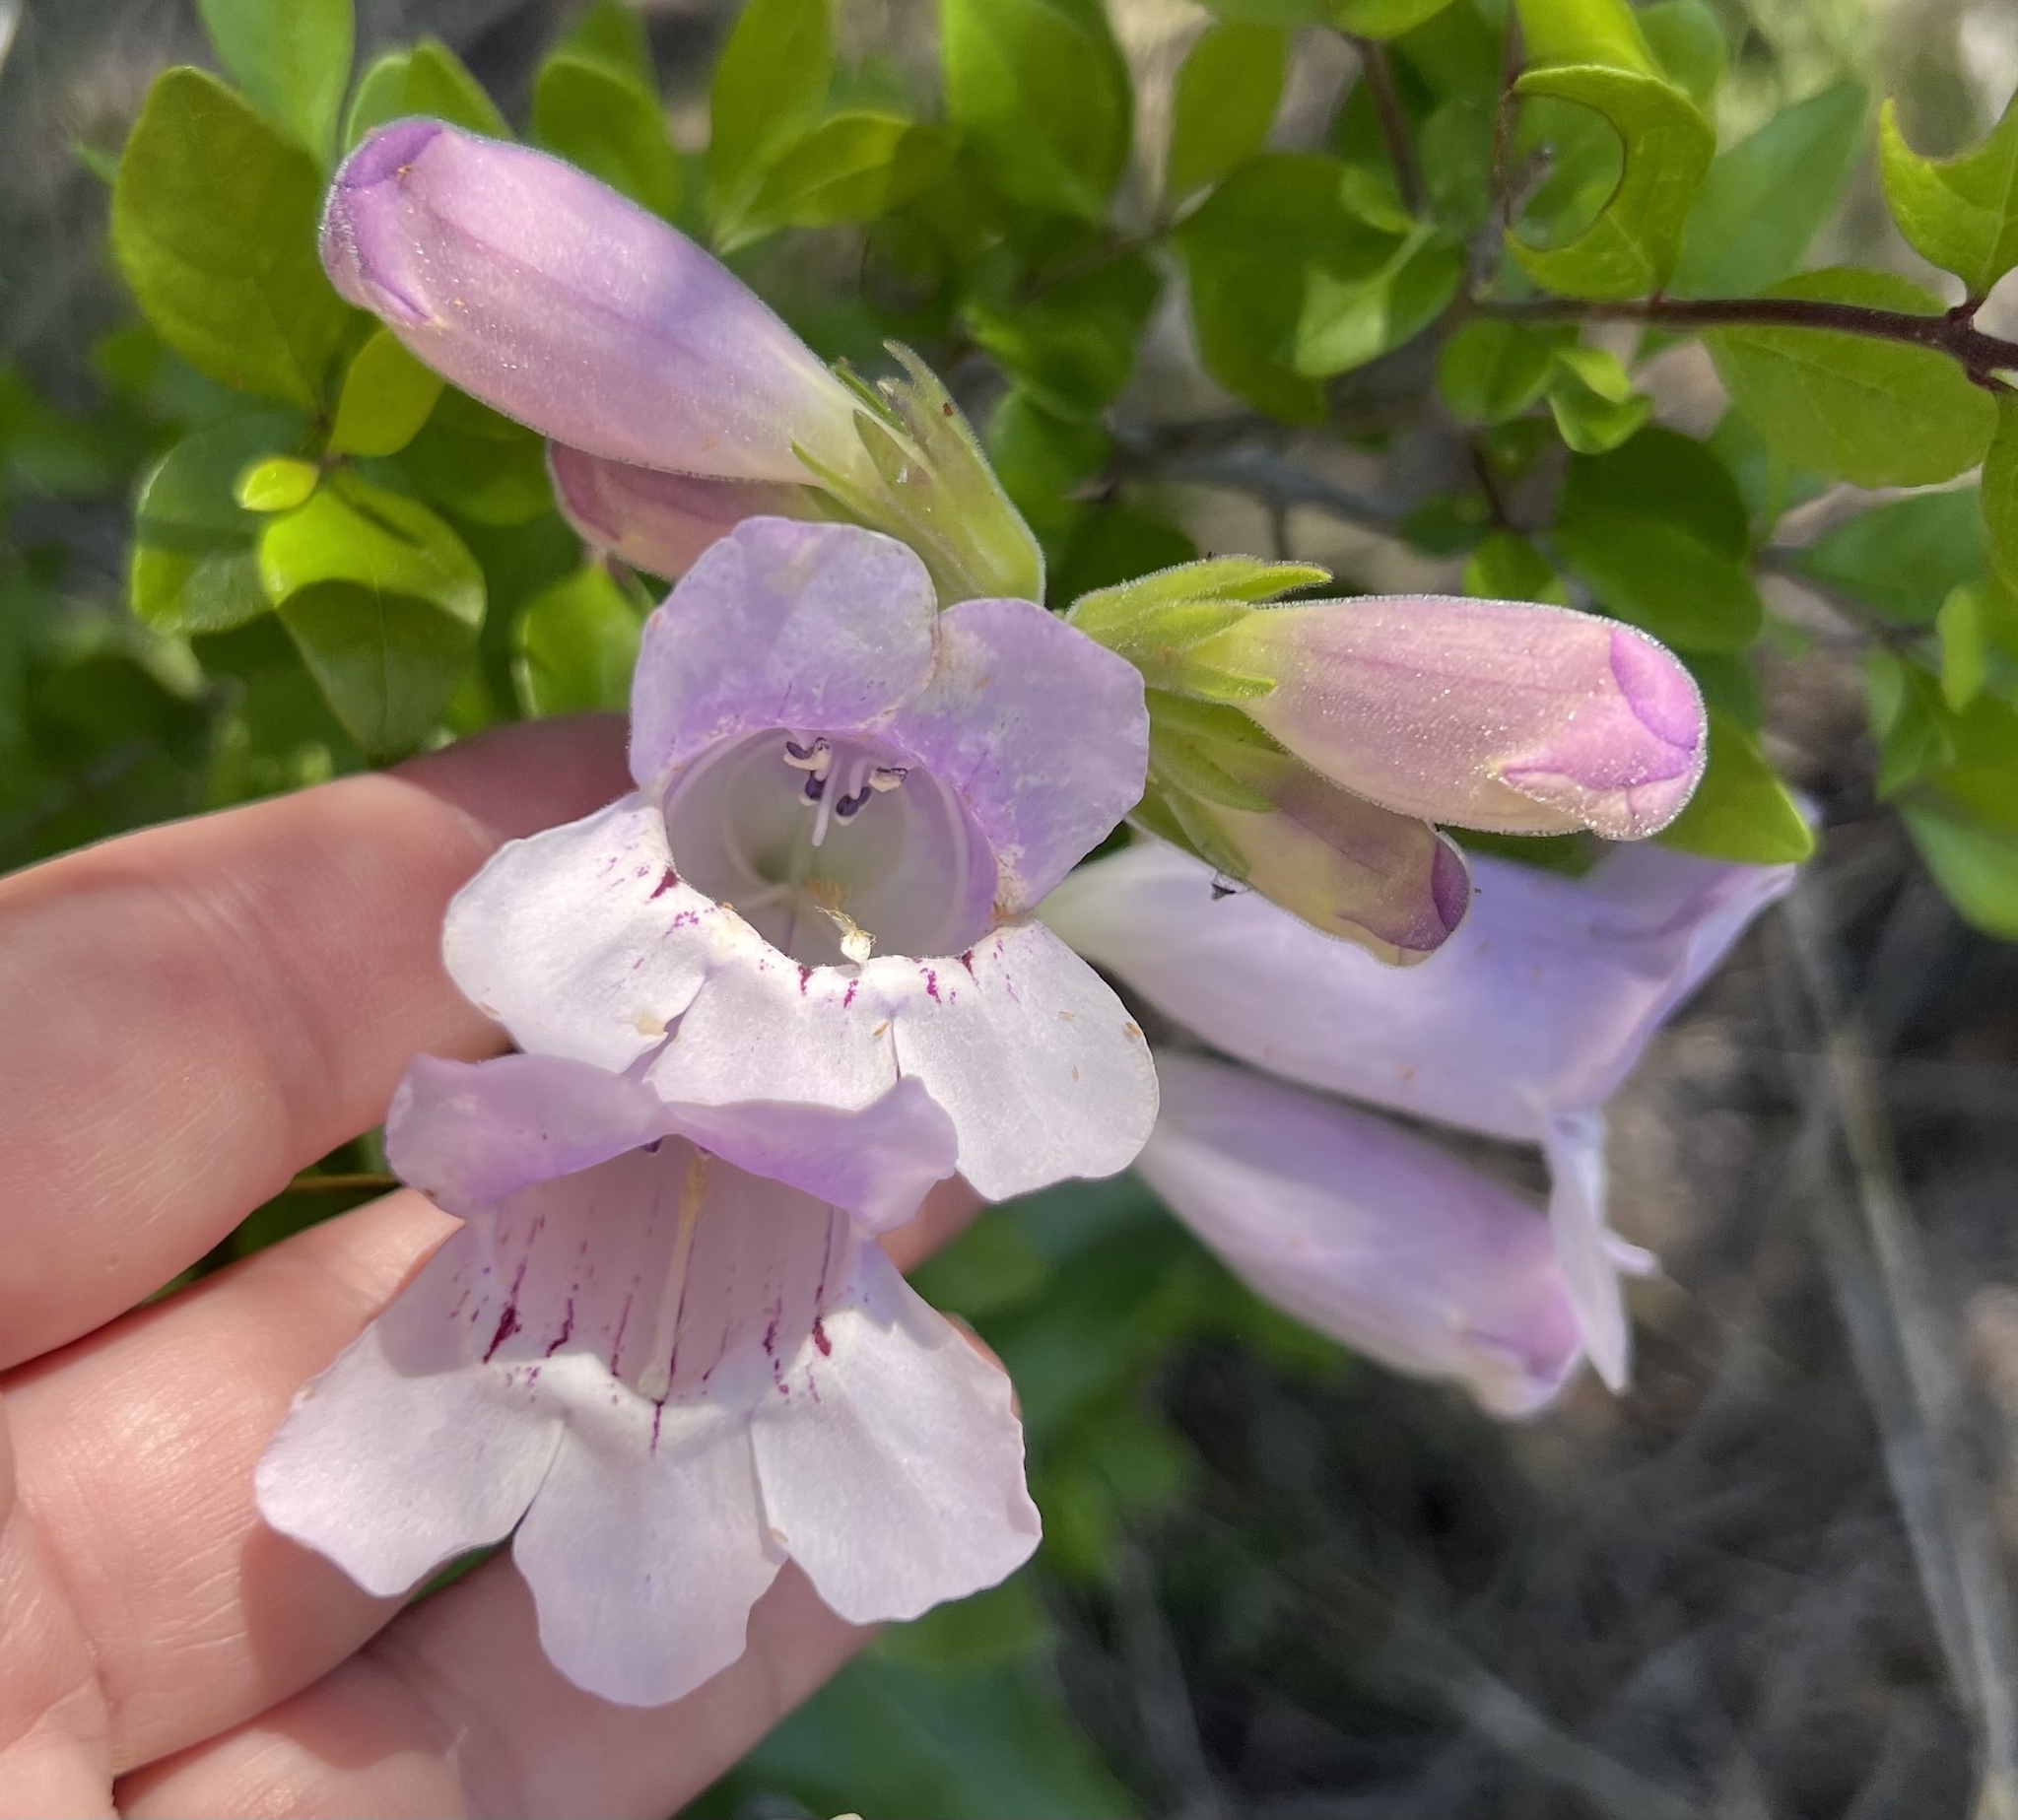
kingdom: Plantae
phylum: Tracheophyta
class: Magnoliopsida
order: Lamiales
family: Plantaginaceae
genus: Penstemon
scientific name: Penstemon cobaea
